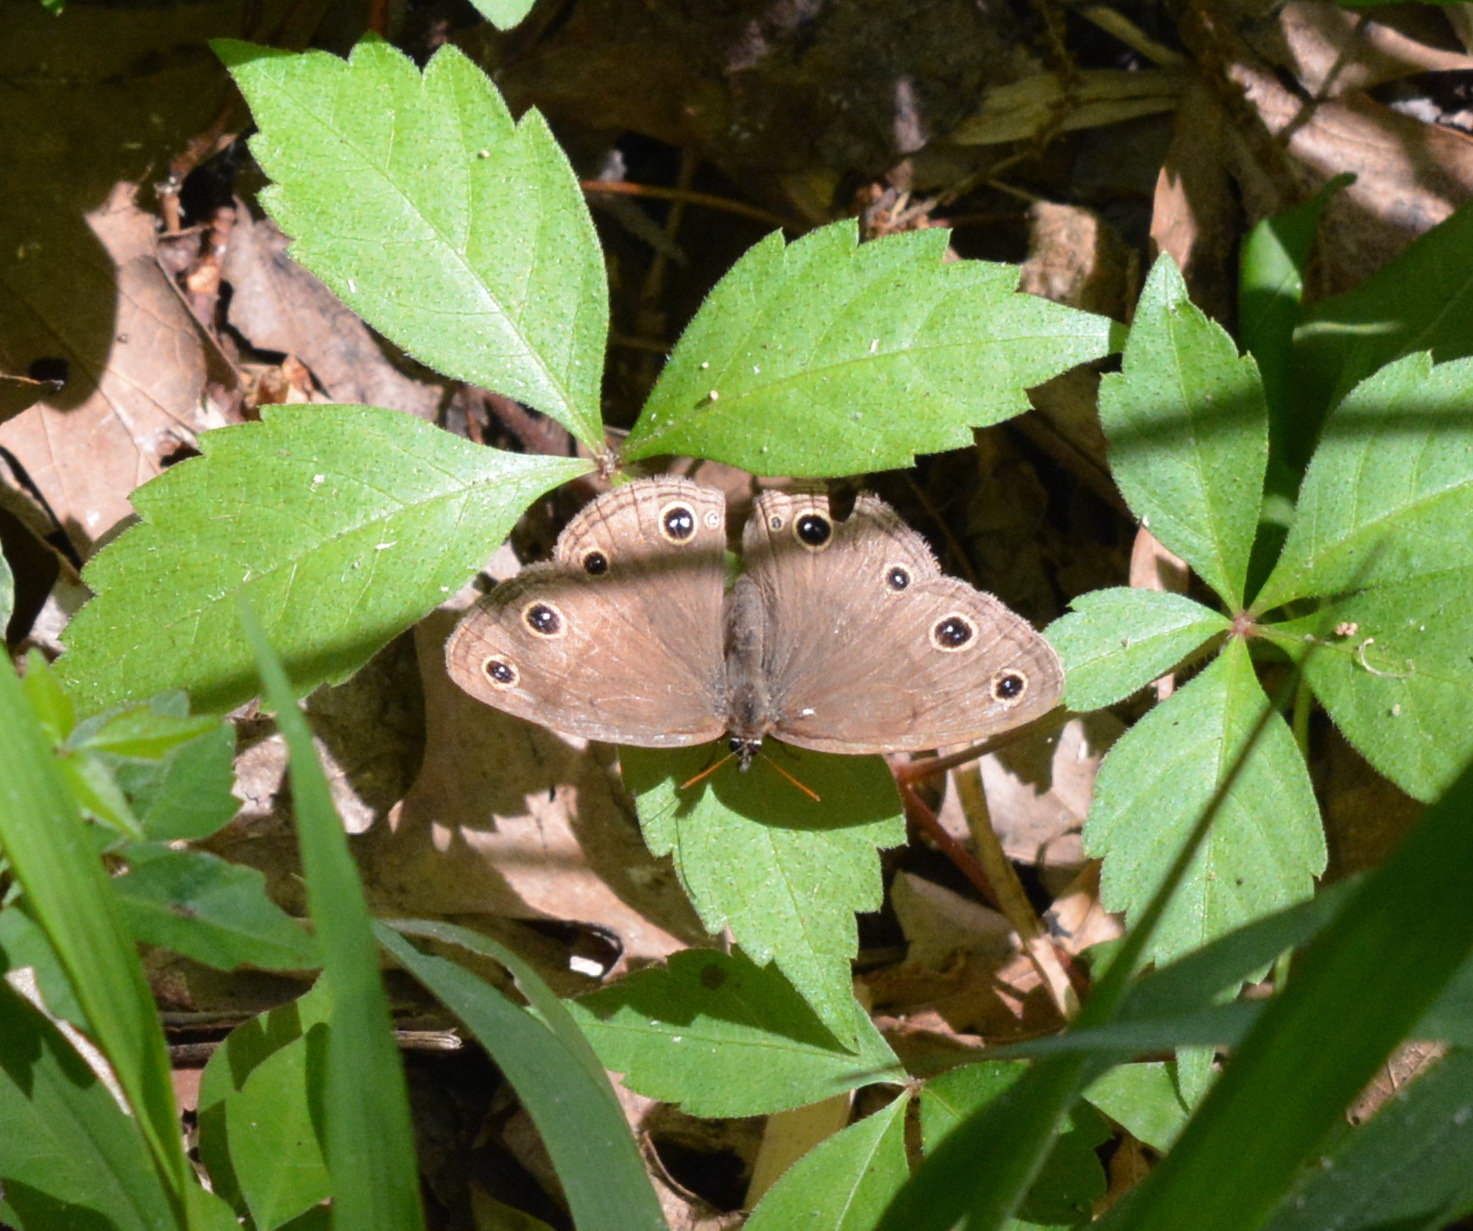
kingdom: Animalia
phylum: Arthropoda
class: Insecta
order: Lepidoptera
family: Nymphalidae
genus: Euptychia
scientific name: Euptychia cymela
